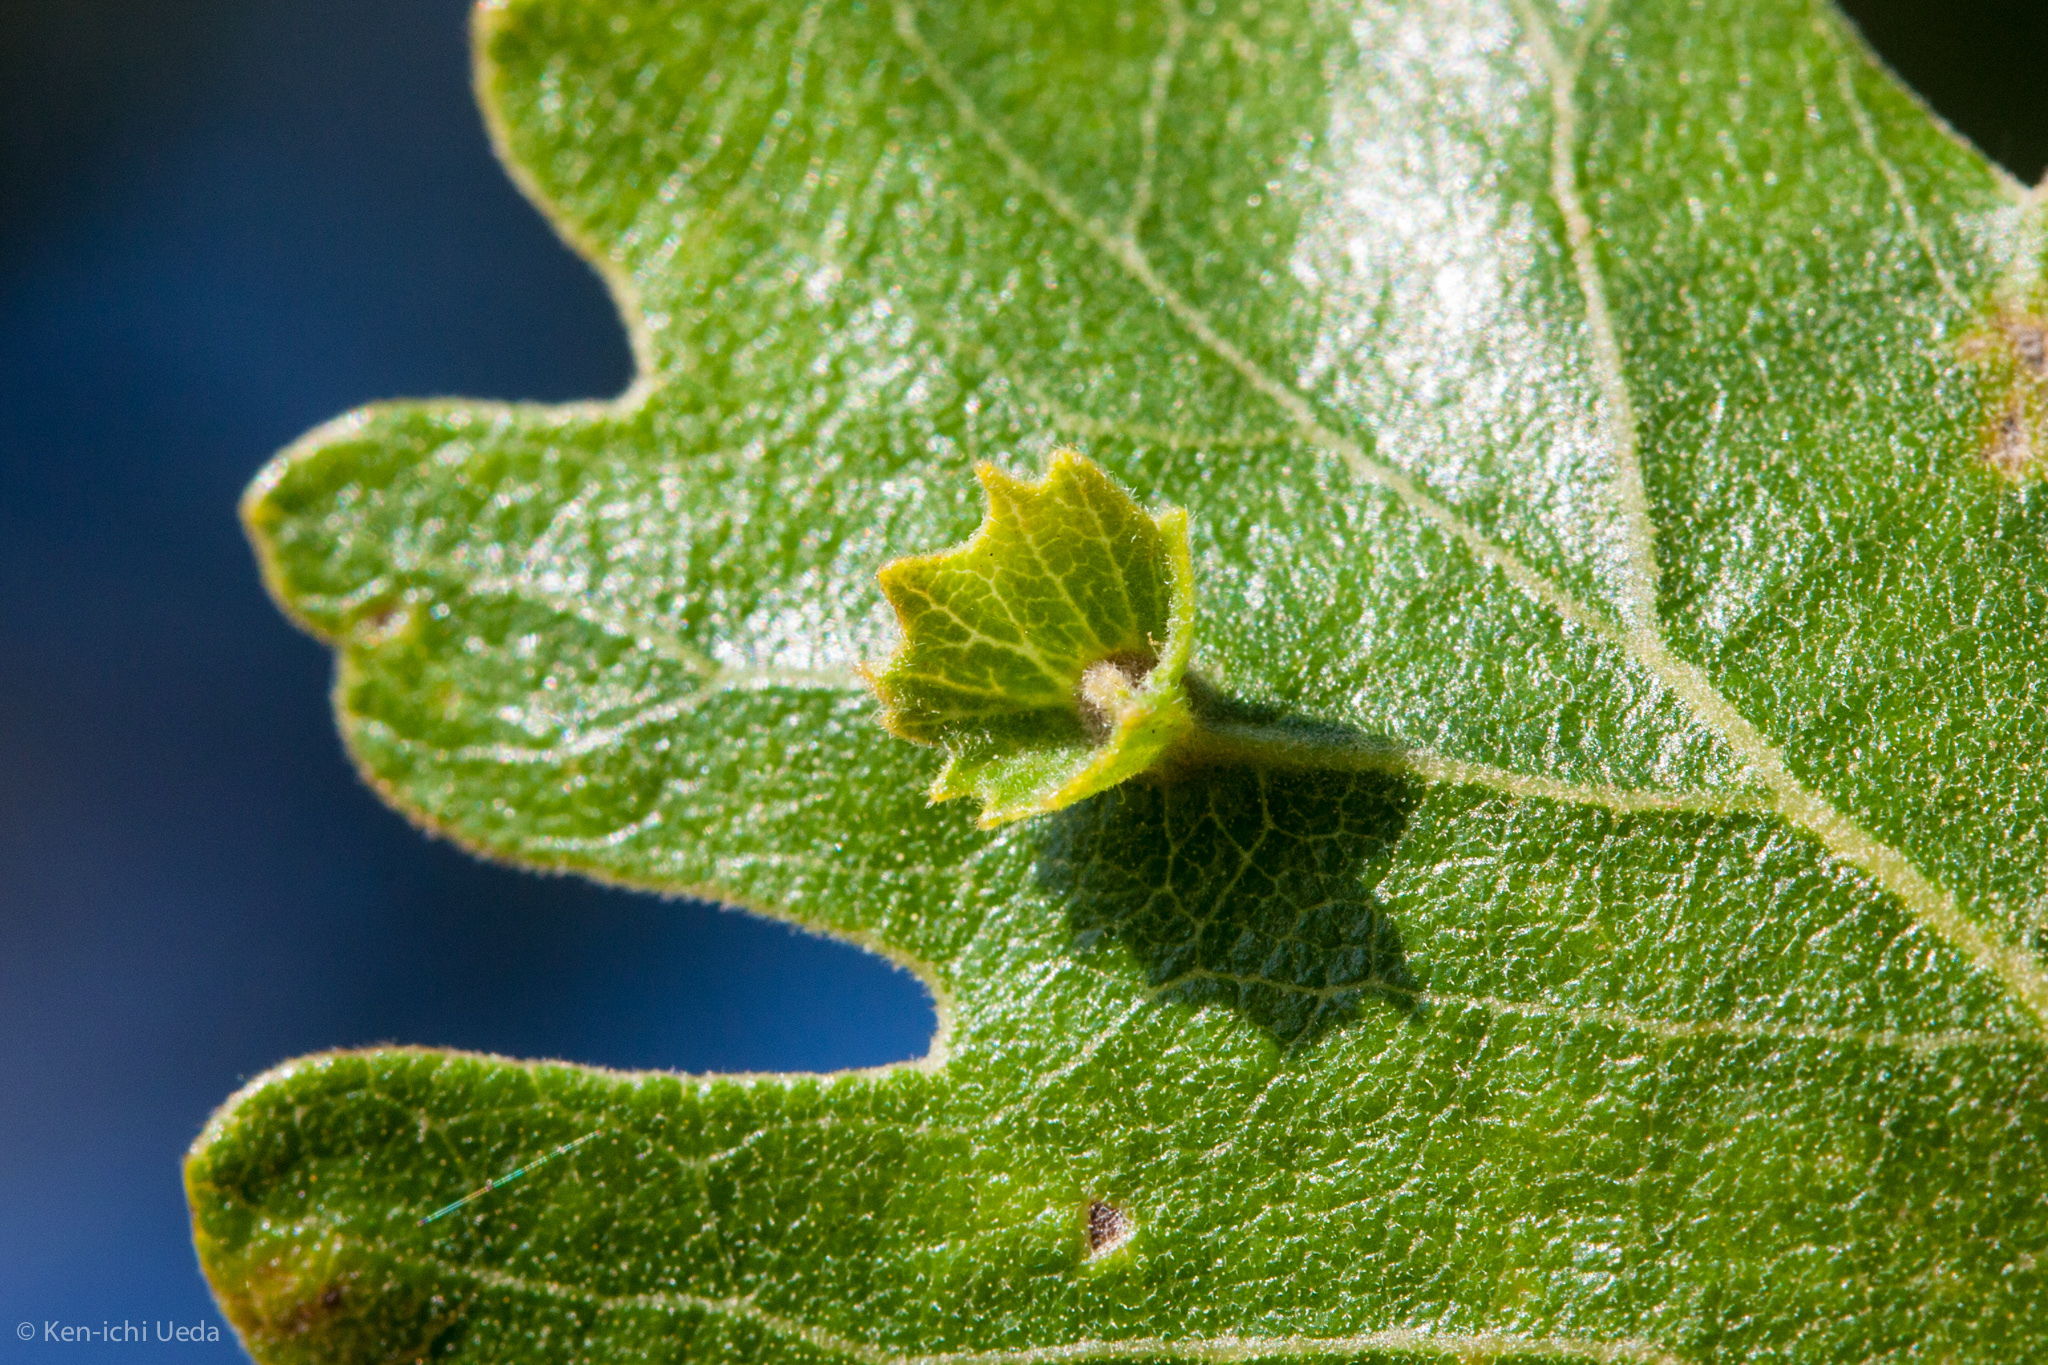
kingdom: Animalia
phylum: Arthropoda
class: Insecta
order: Hymenoptera
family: Cynipidae
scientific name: Cynipidae
